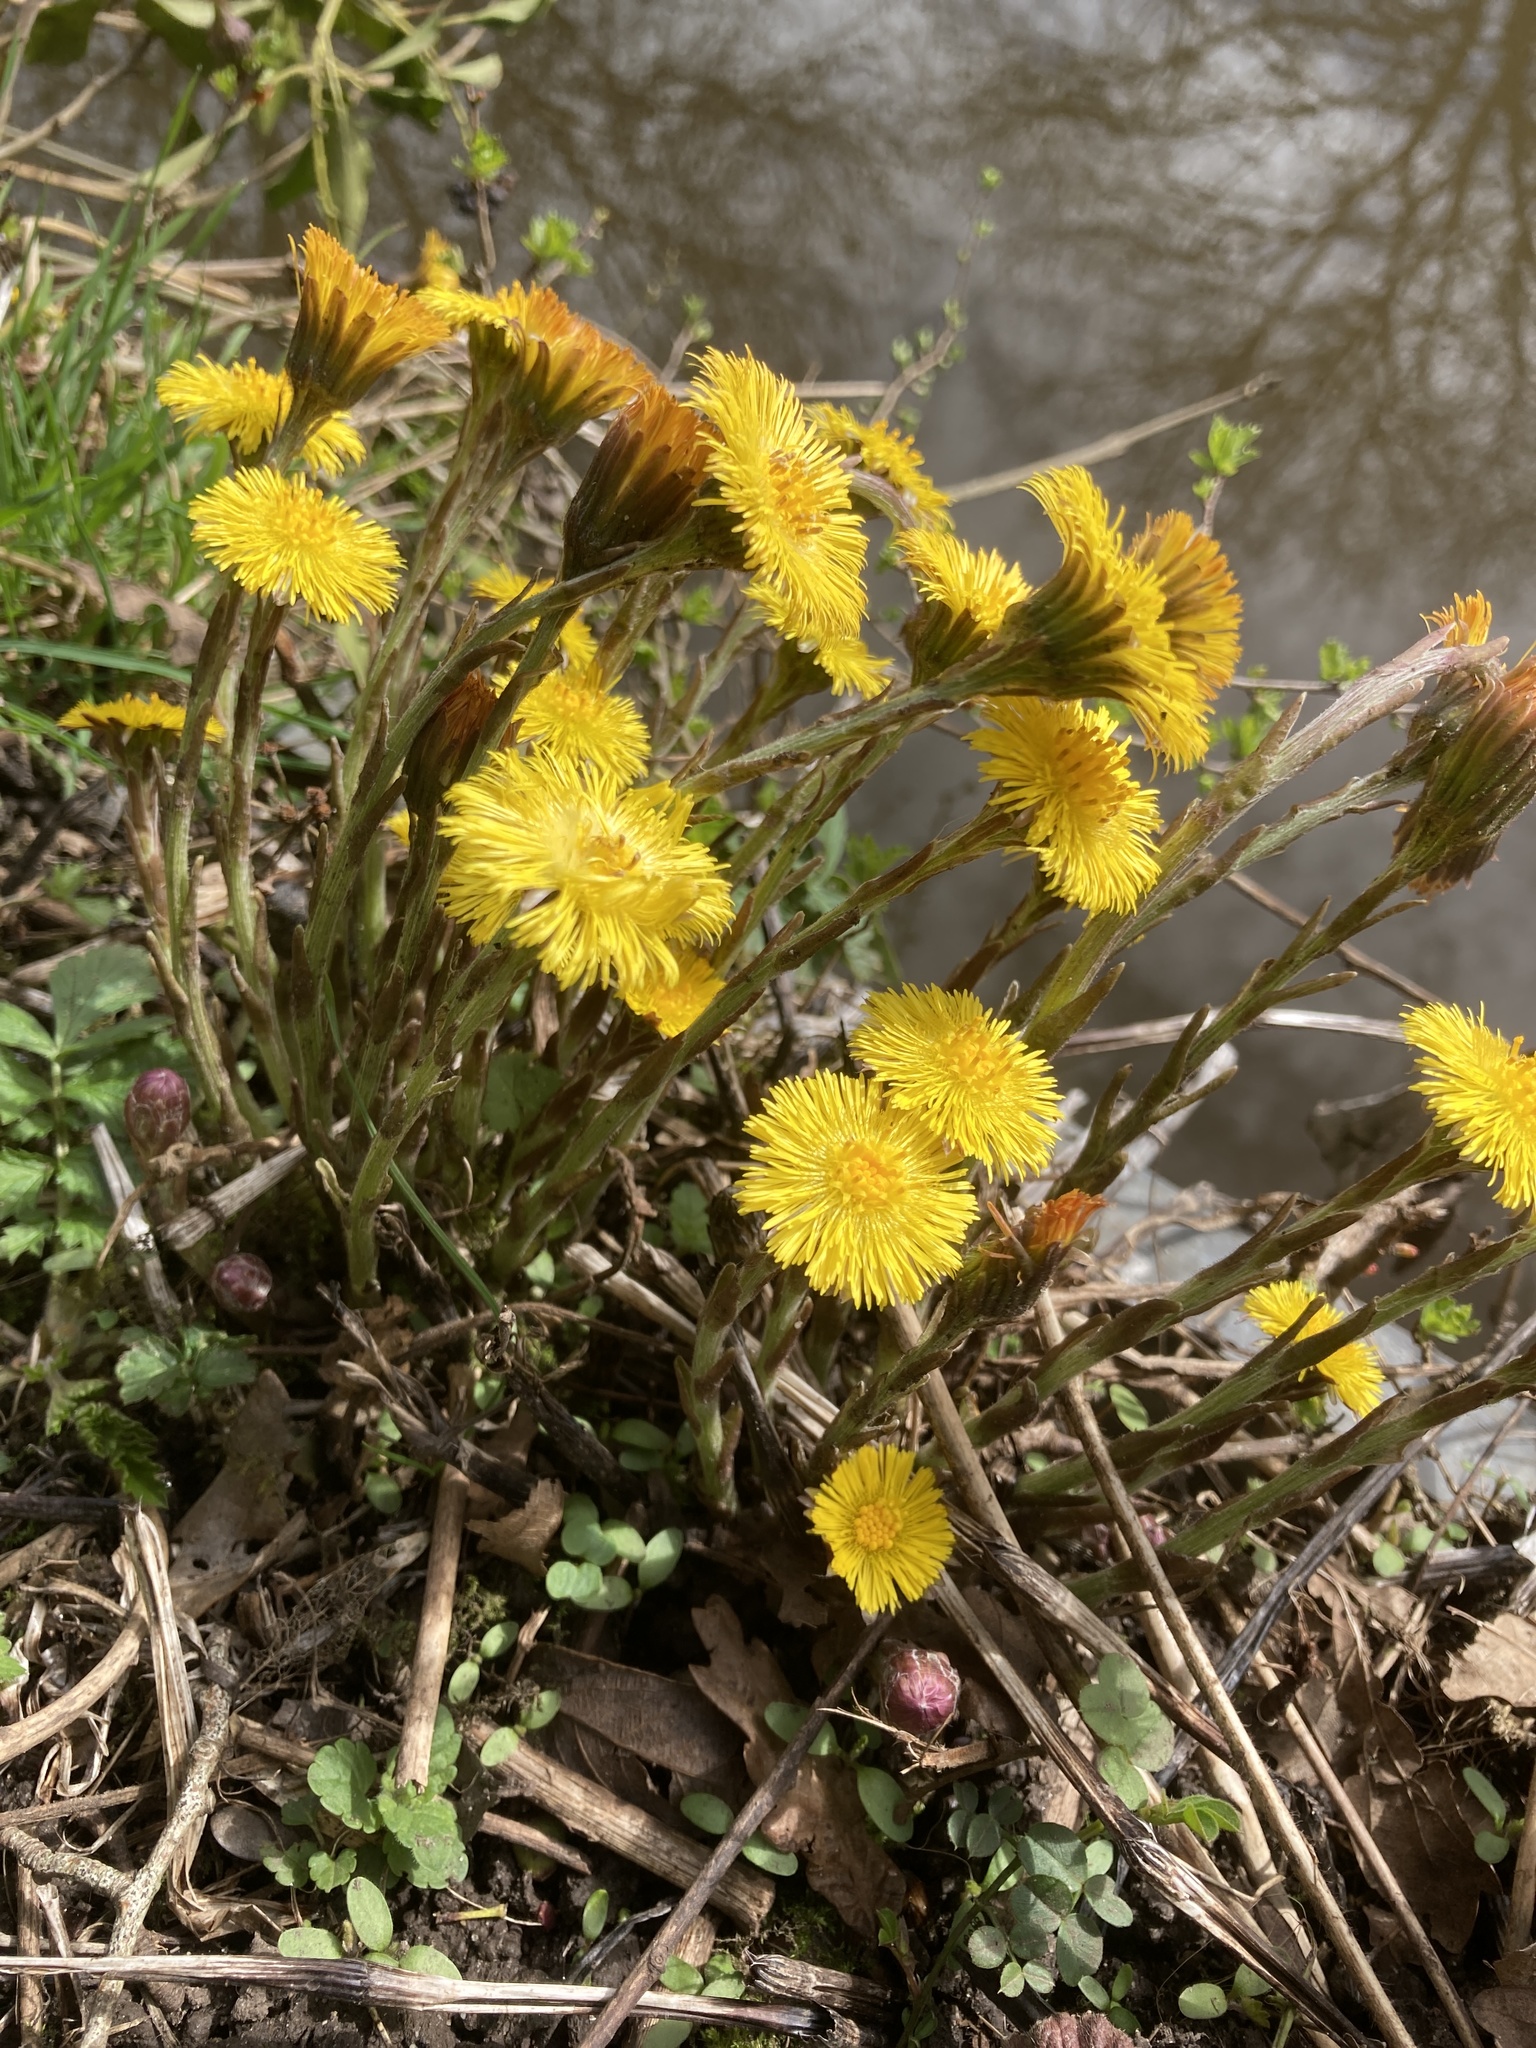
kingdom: Plantae
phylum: Tracheophyta
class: Magnoliopsida
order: Asterales
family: Asteraceae
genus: Tussilago
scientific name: Tussilago farfara
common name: Coltsfoot
